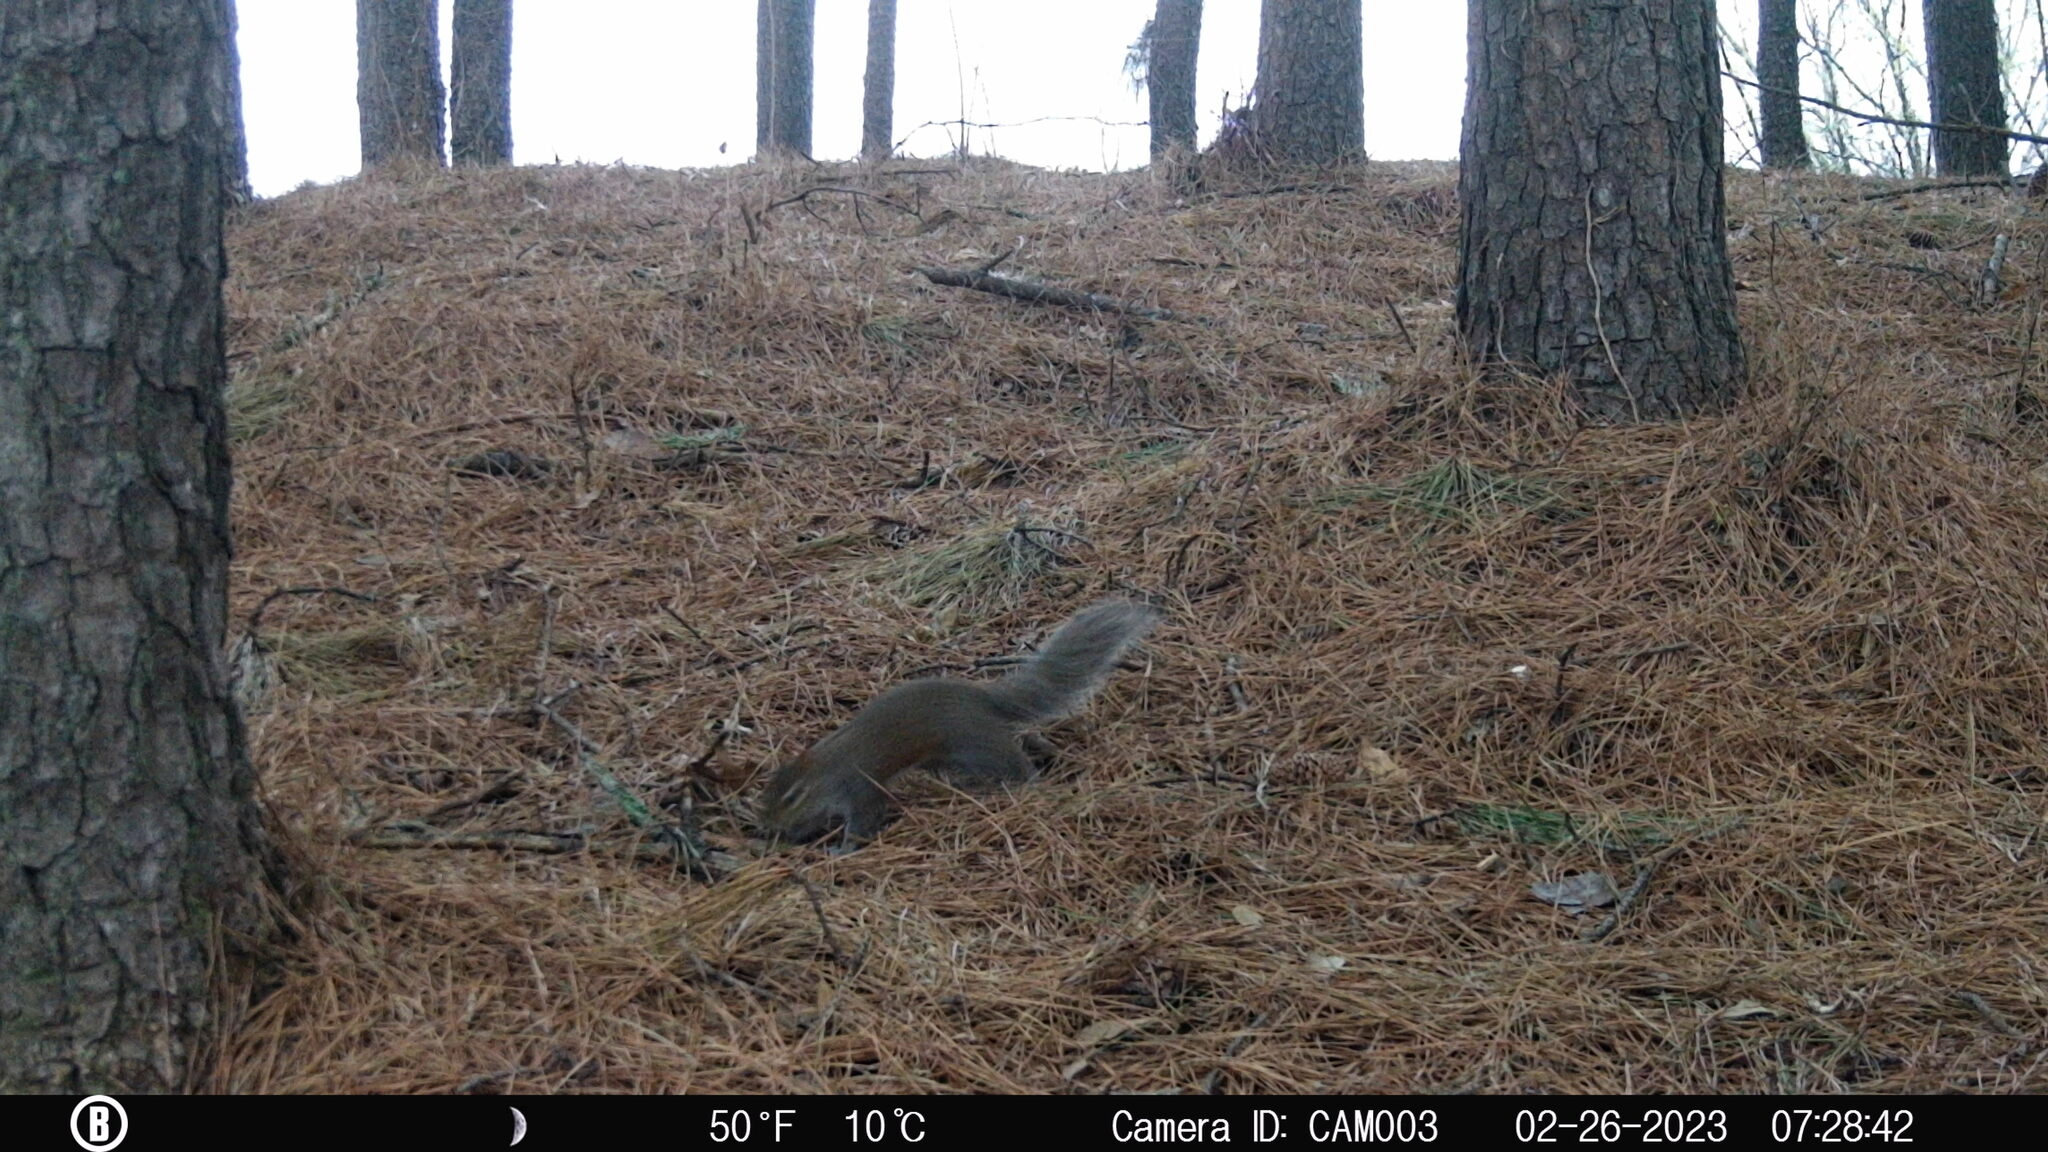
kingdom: Animalia
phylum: Chordata
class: Mammalia
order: Rodentia
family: Sciuridae
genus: Sciurus
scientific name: Sciurus carolinensis
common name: Eastern gray squirrel
